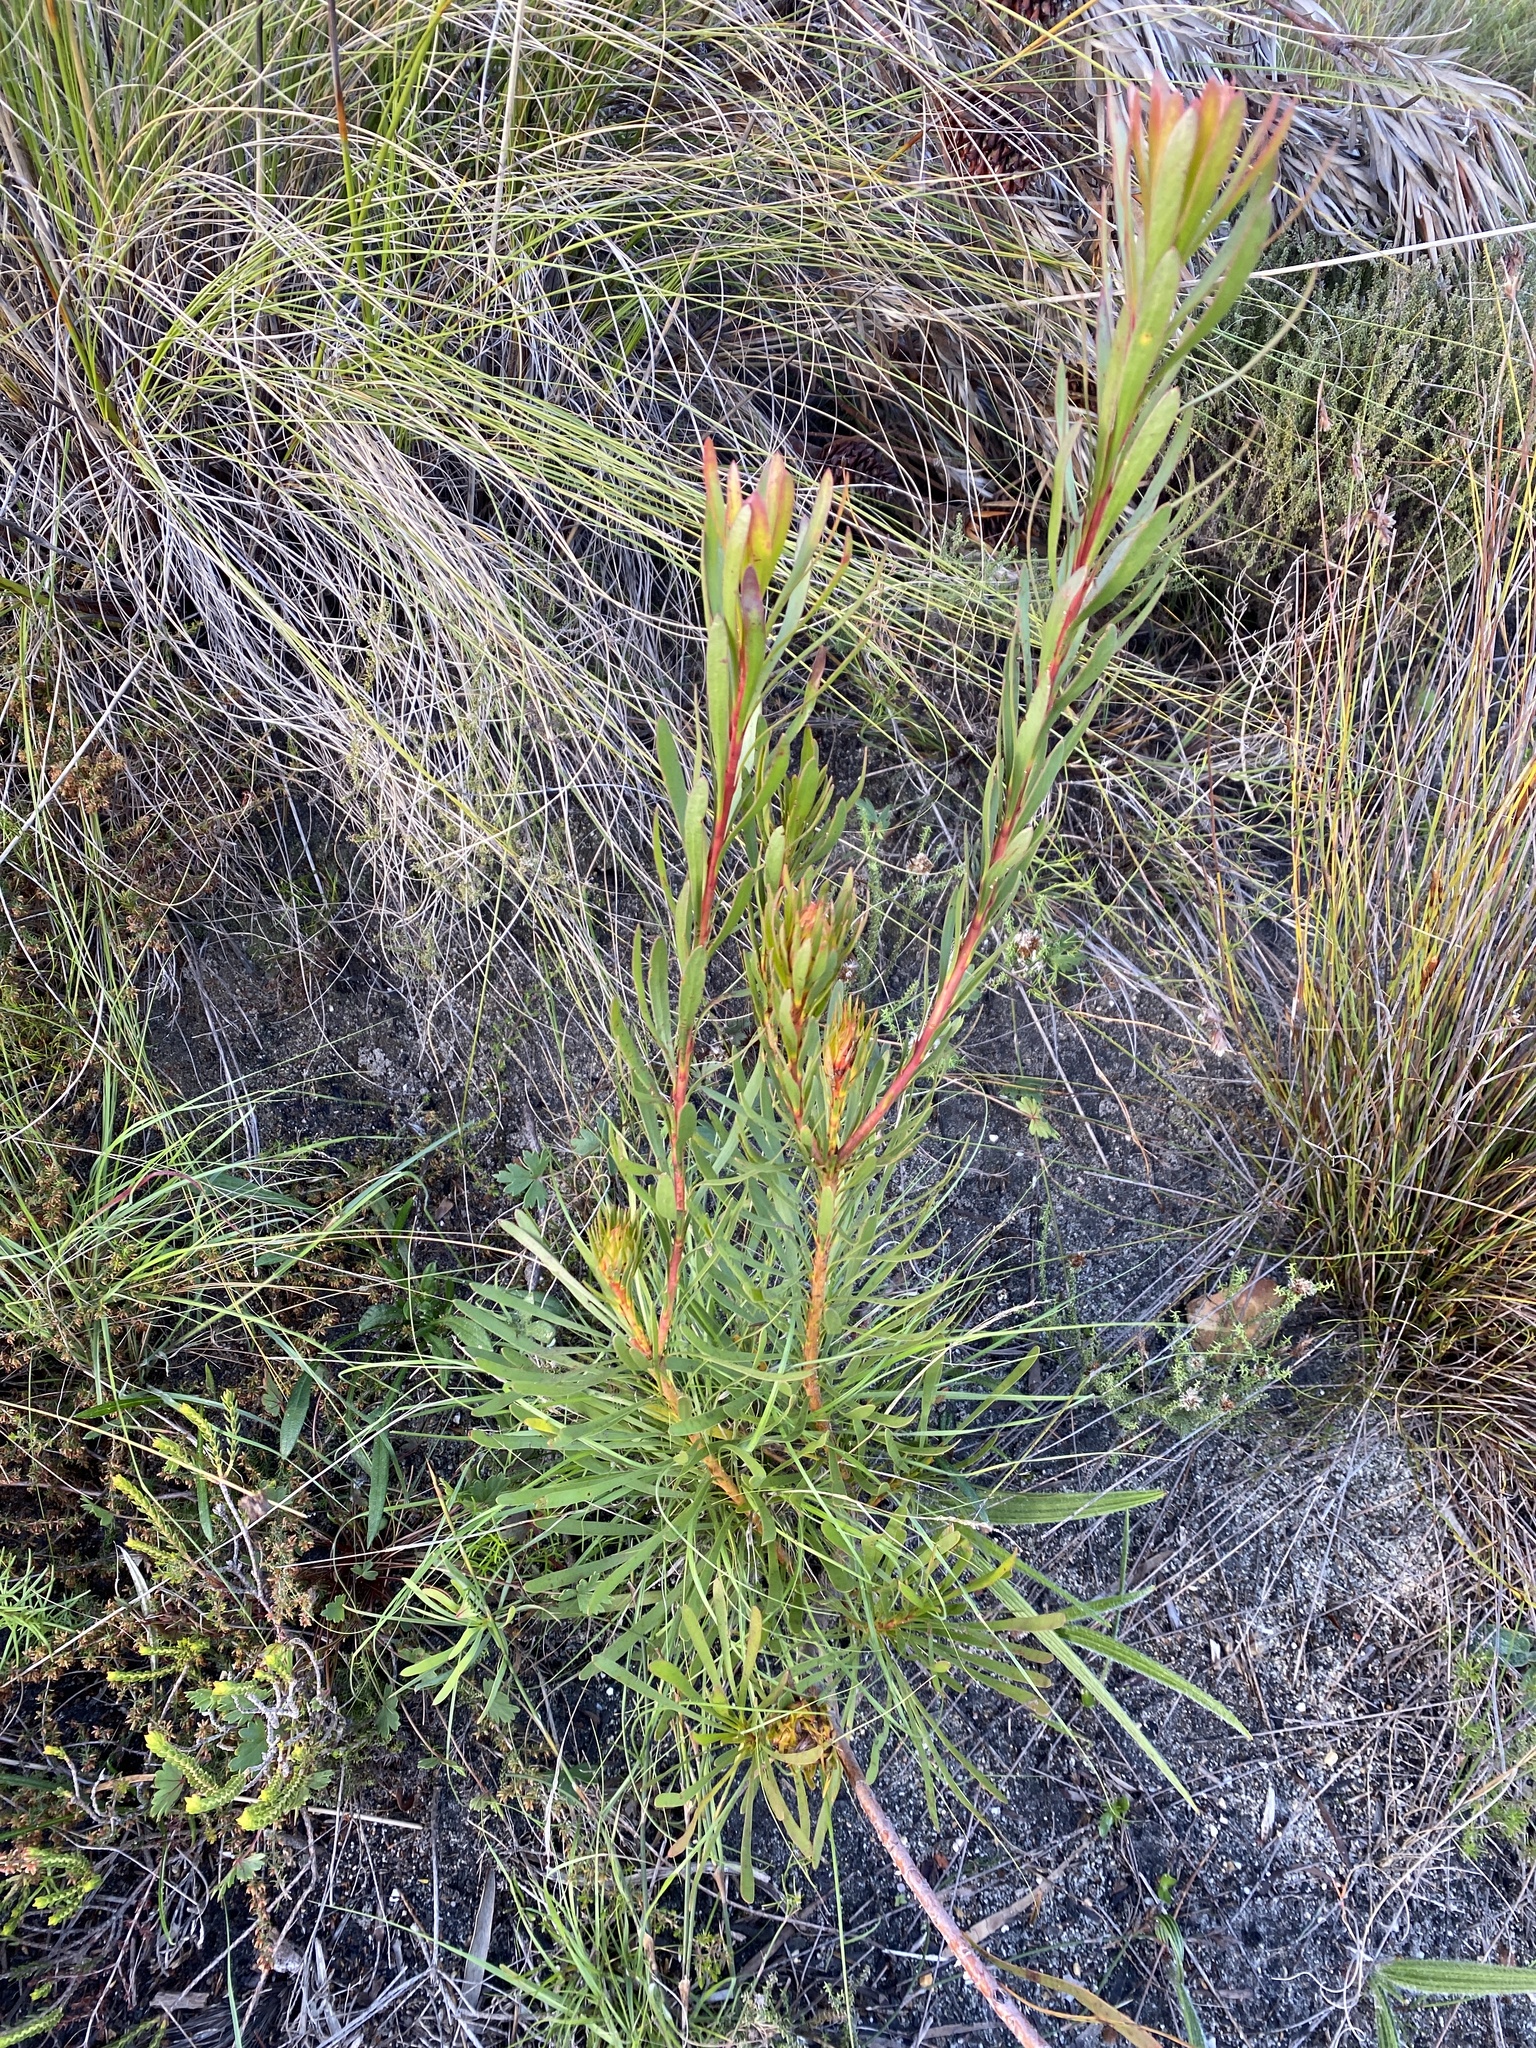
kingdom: Plantae
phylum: Tracheophyta
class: Magnoliopsida
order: Proteales
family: Proteaceae
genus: Aulax
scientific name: Aulax umbellata
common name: Broad-leaf featherbush
